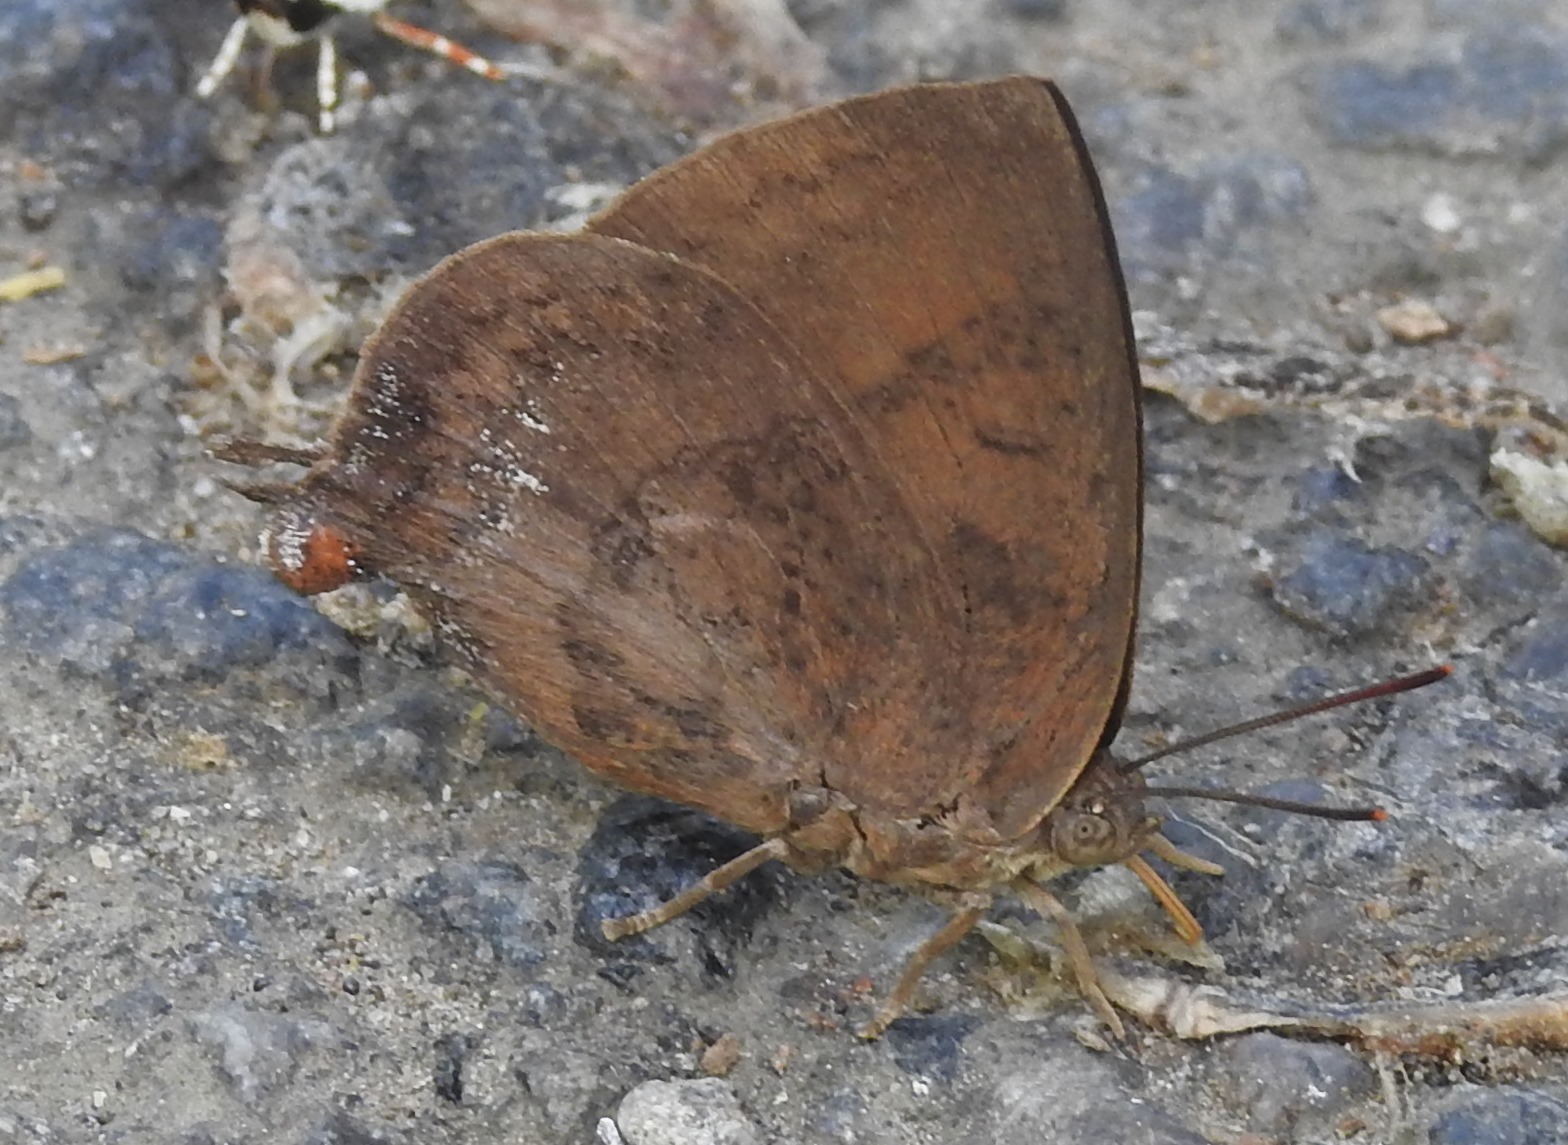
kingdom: Animalia
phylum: Arthropoda
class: Insecta
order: Lepidoptera
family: Lycaenidae
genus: Amblypodia
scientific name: Amblypodia anita
